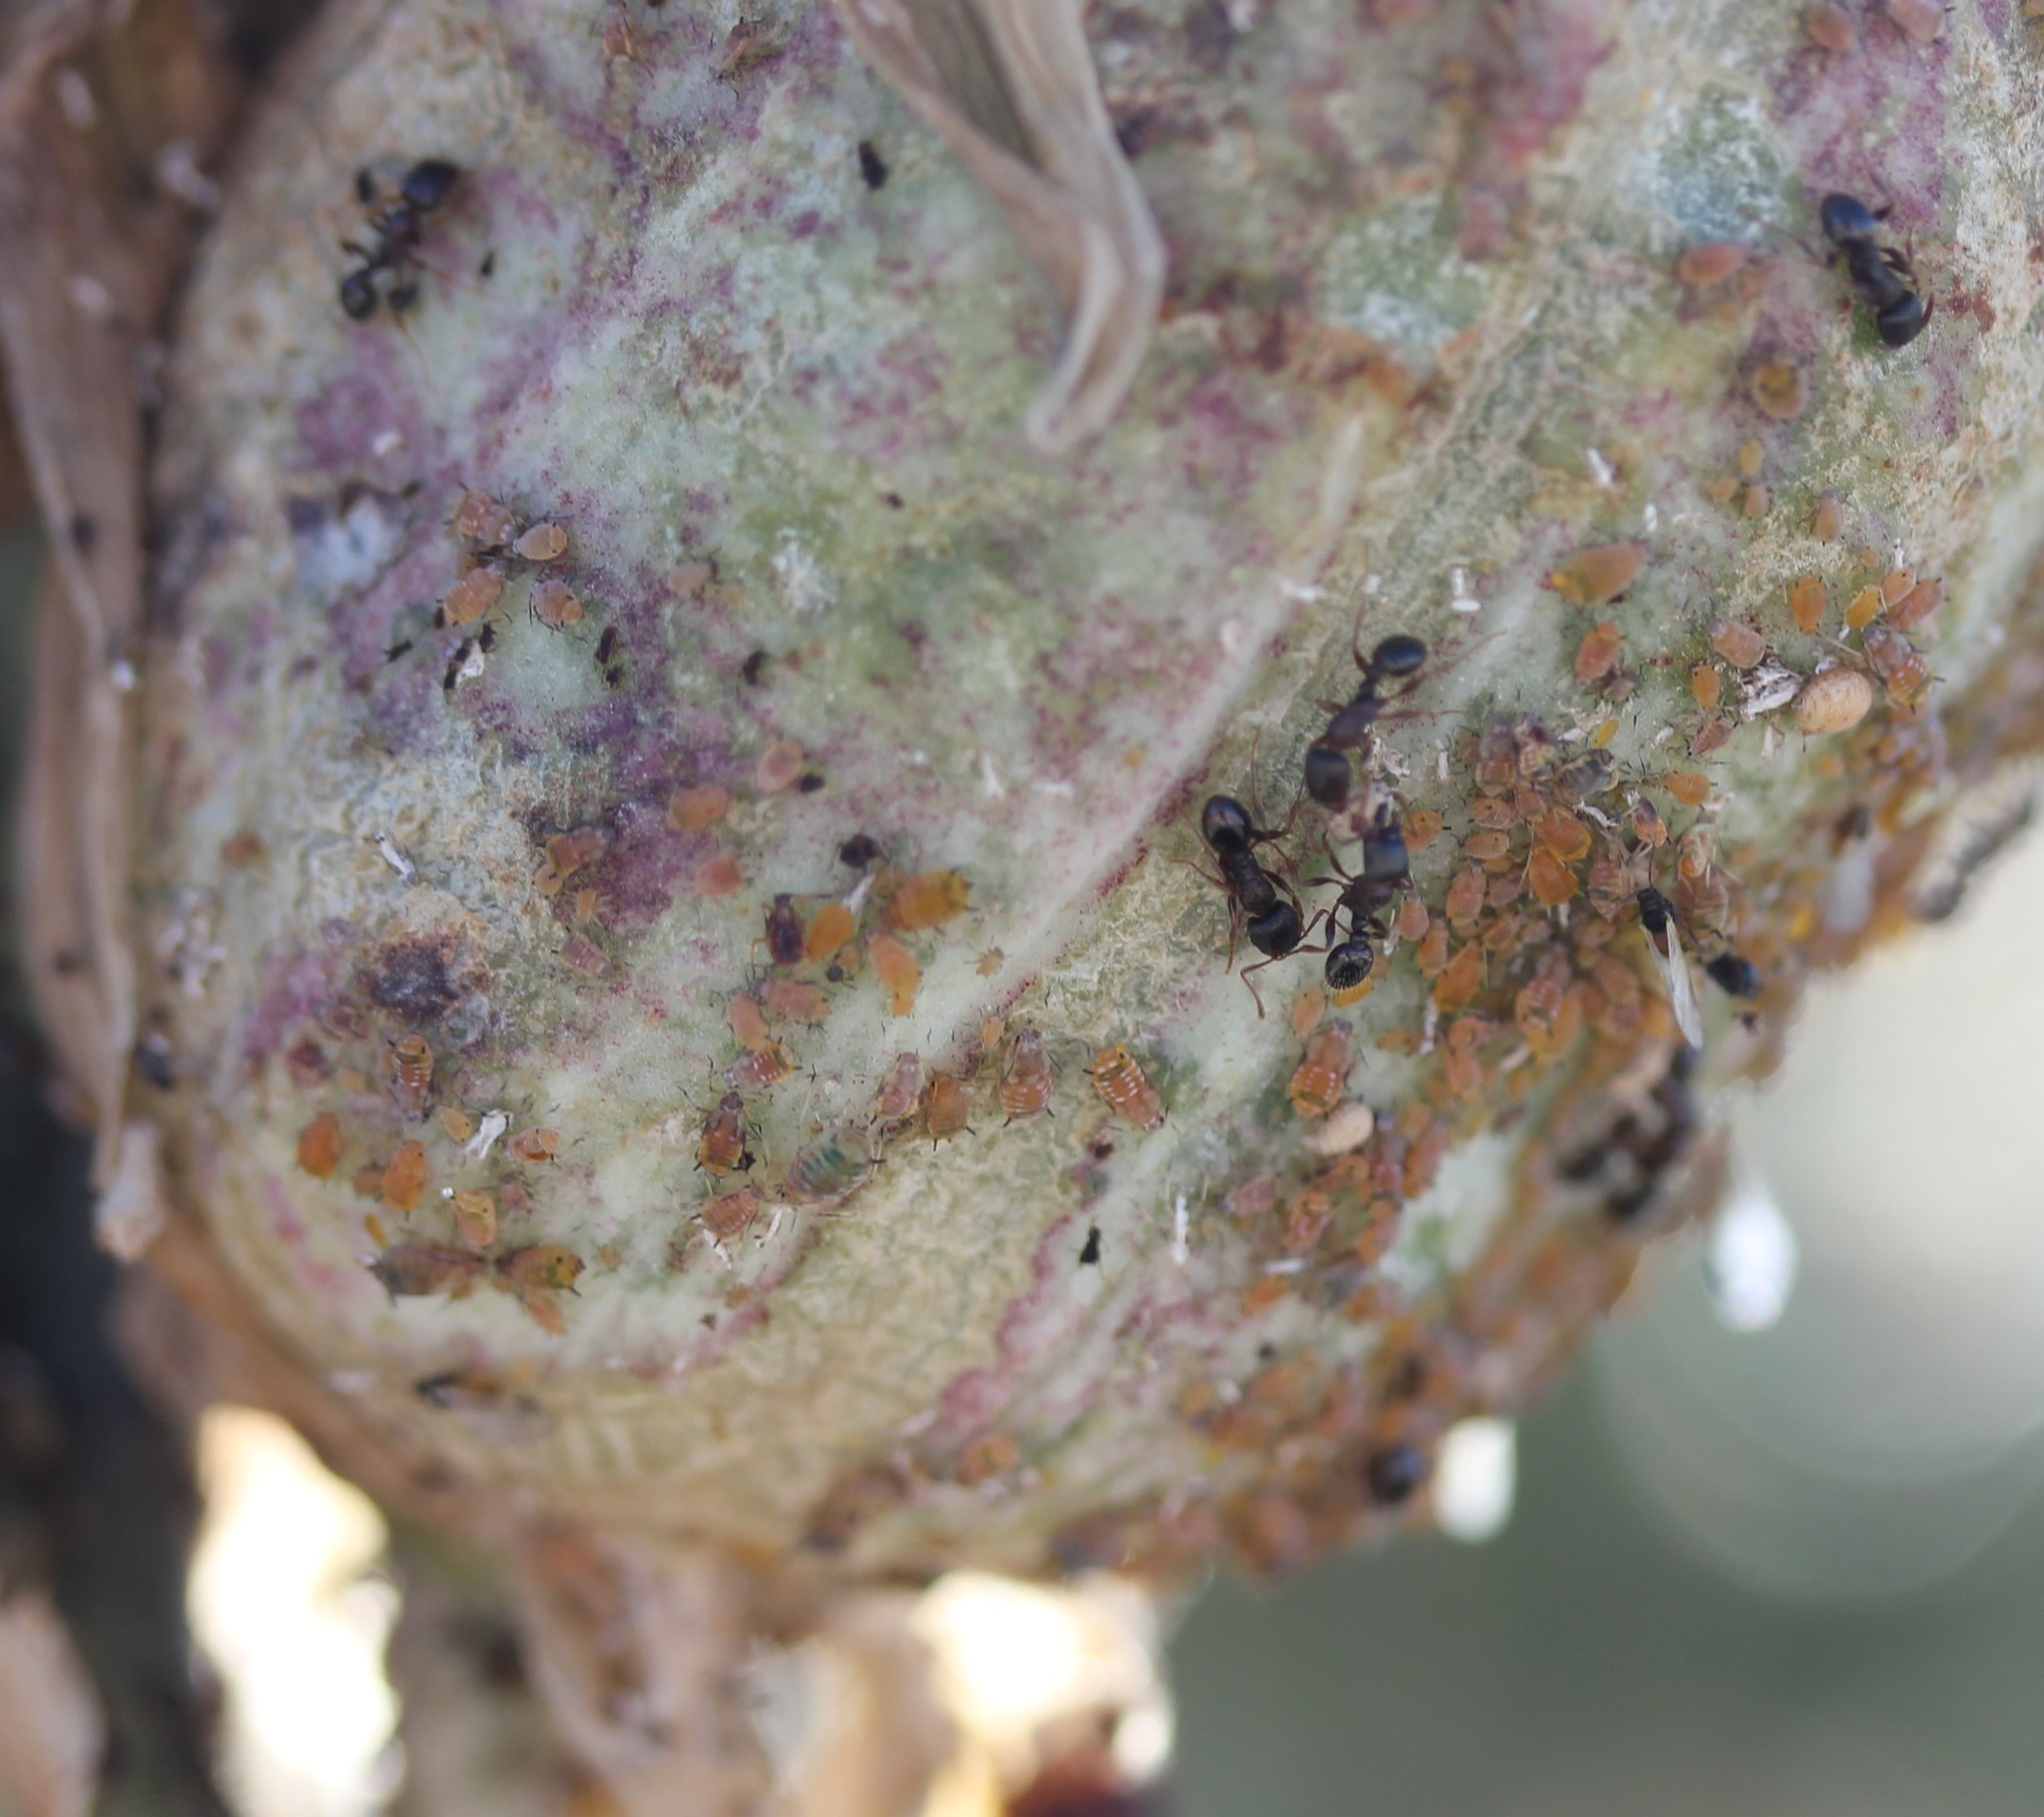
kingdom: Animalia
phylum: Arthropoda
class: Insecta
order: Hemiptera
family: Aphididae
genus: Aphis
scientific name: Aphis asclepiadis
